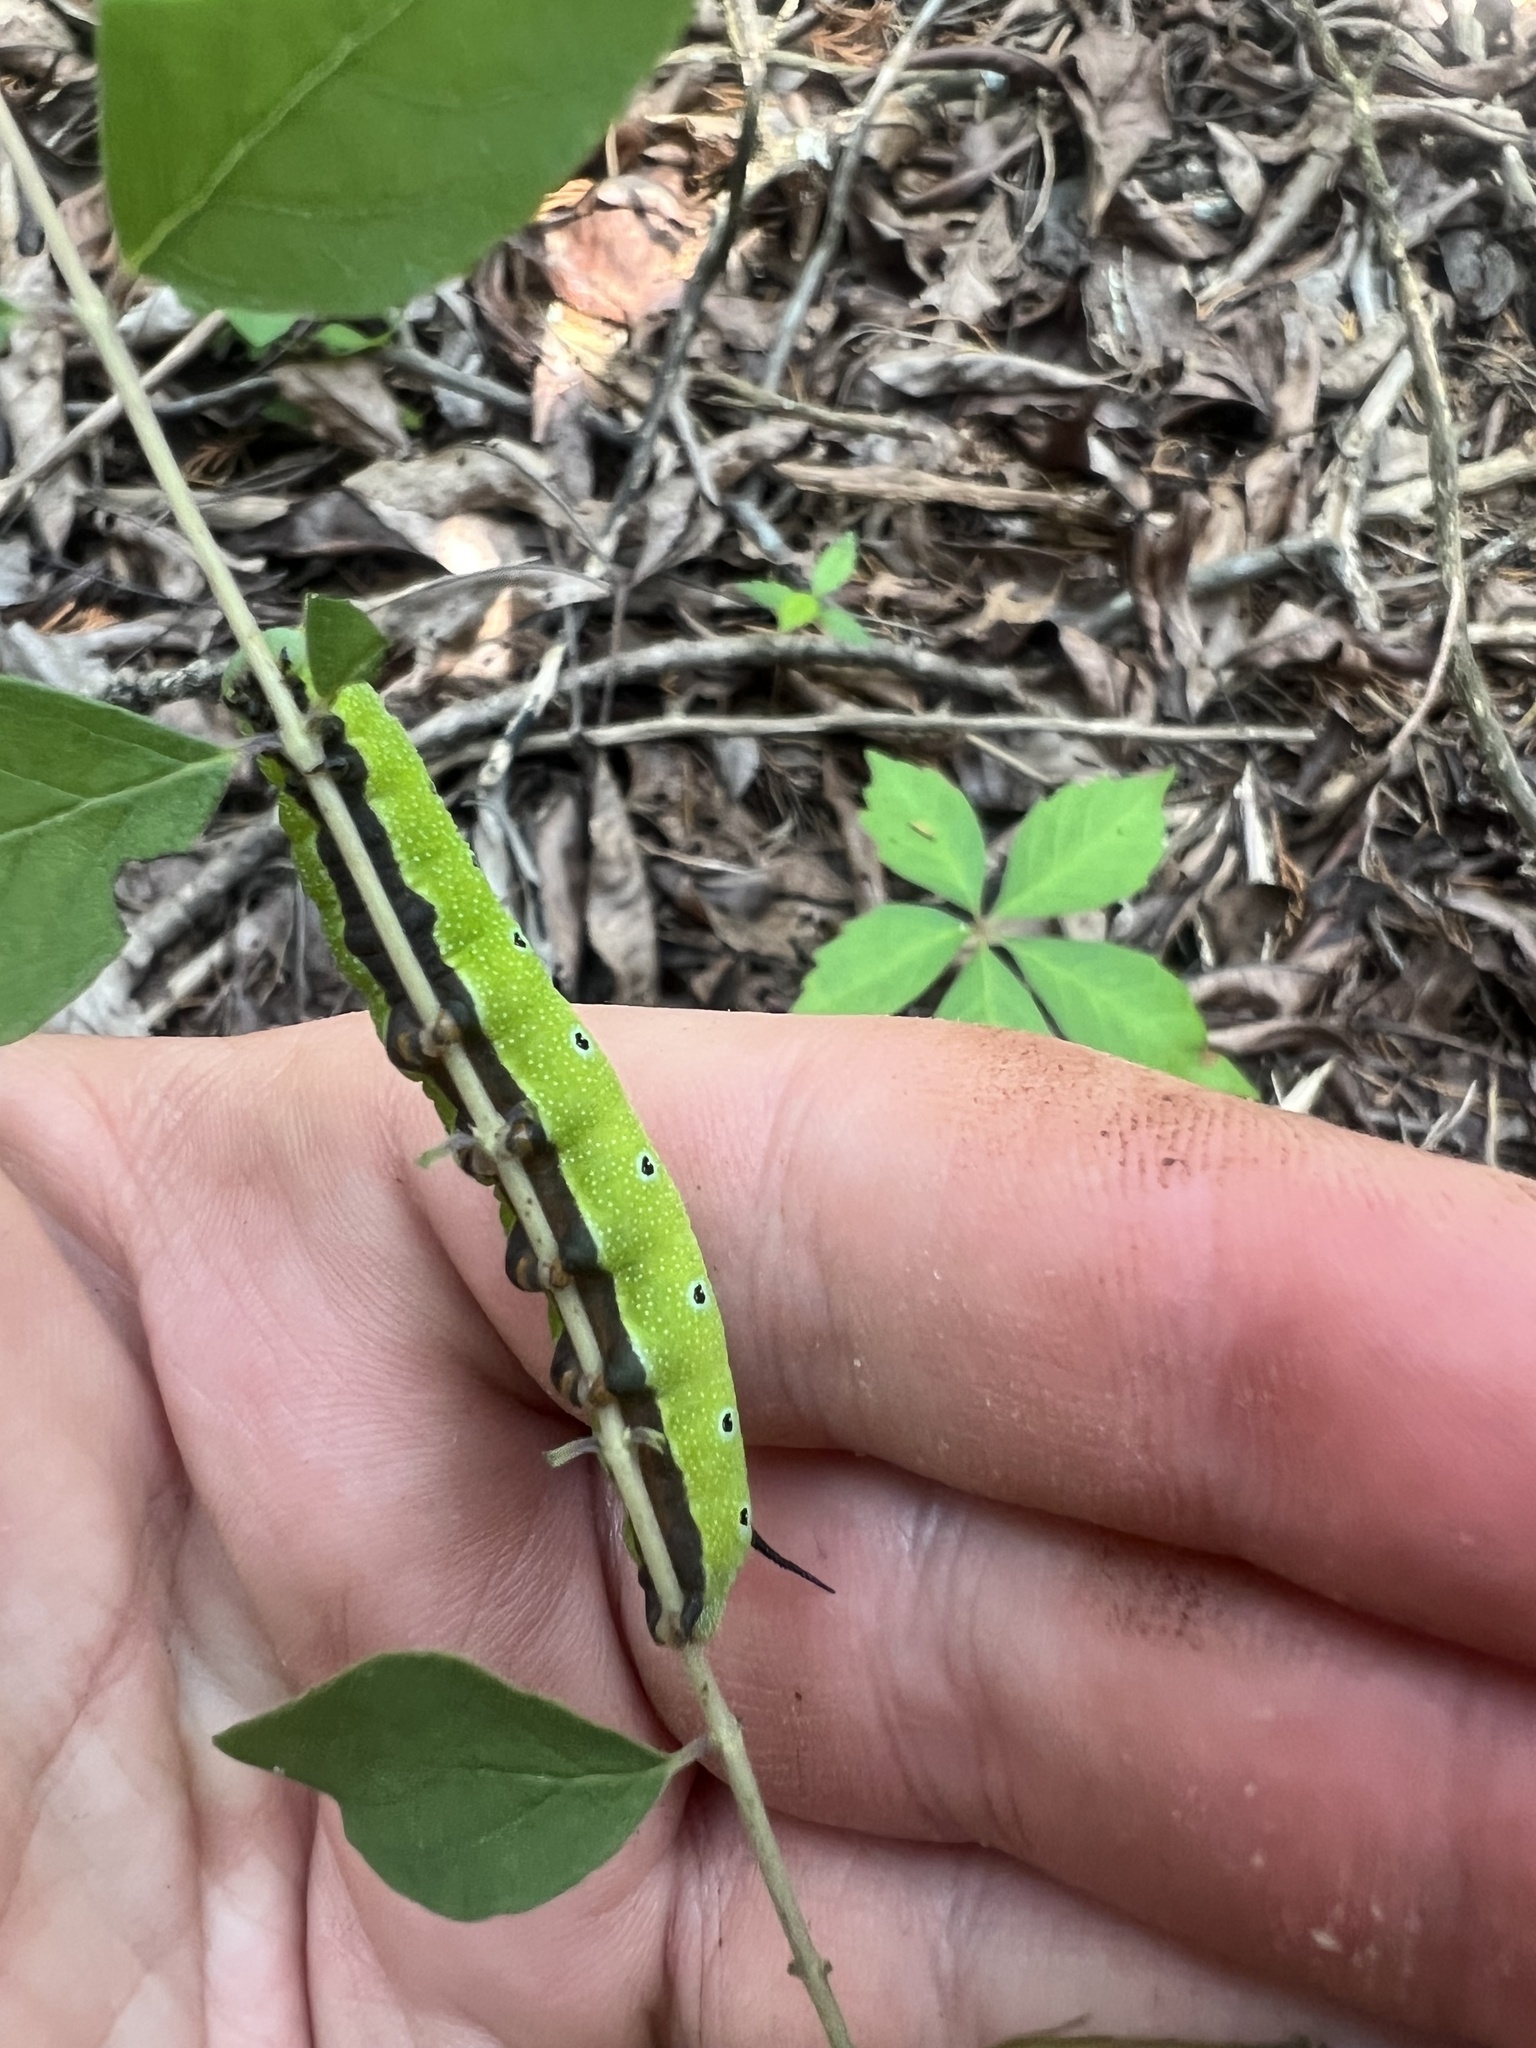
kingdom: Animalia
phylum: Arthropoda
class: Insecta
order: Lepidoptera
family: Sphingidae
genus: Hemaris
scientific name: Hemaris diffinis
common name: Bumblebee moth
